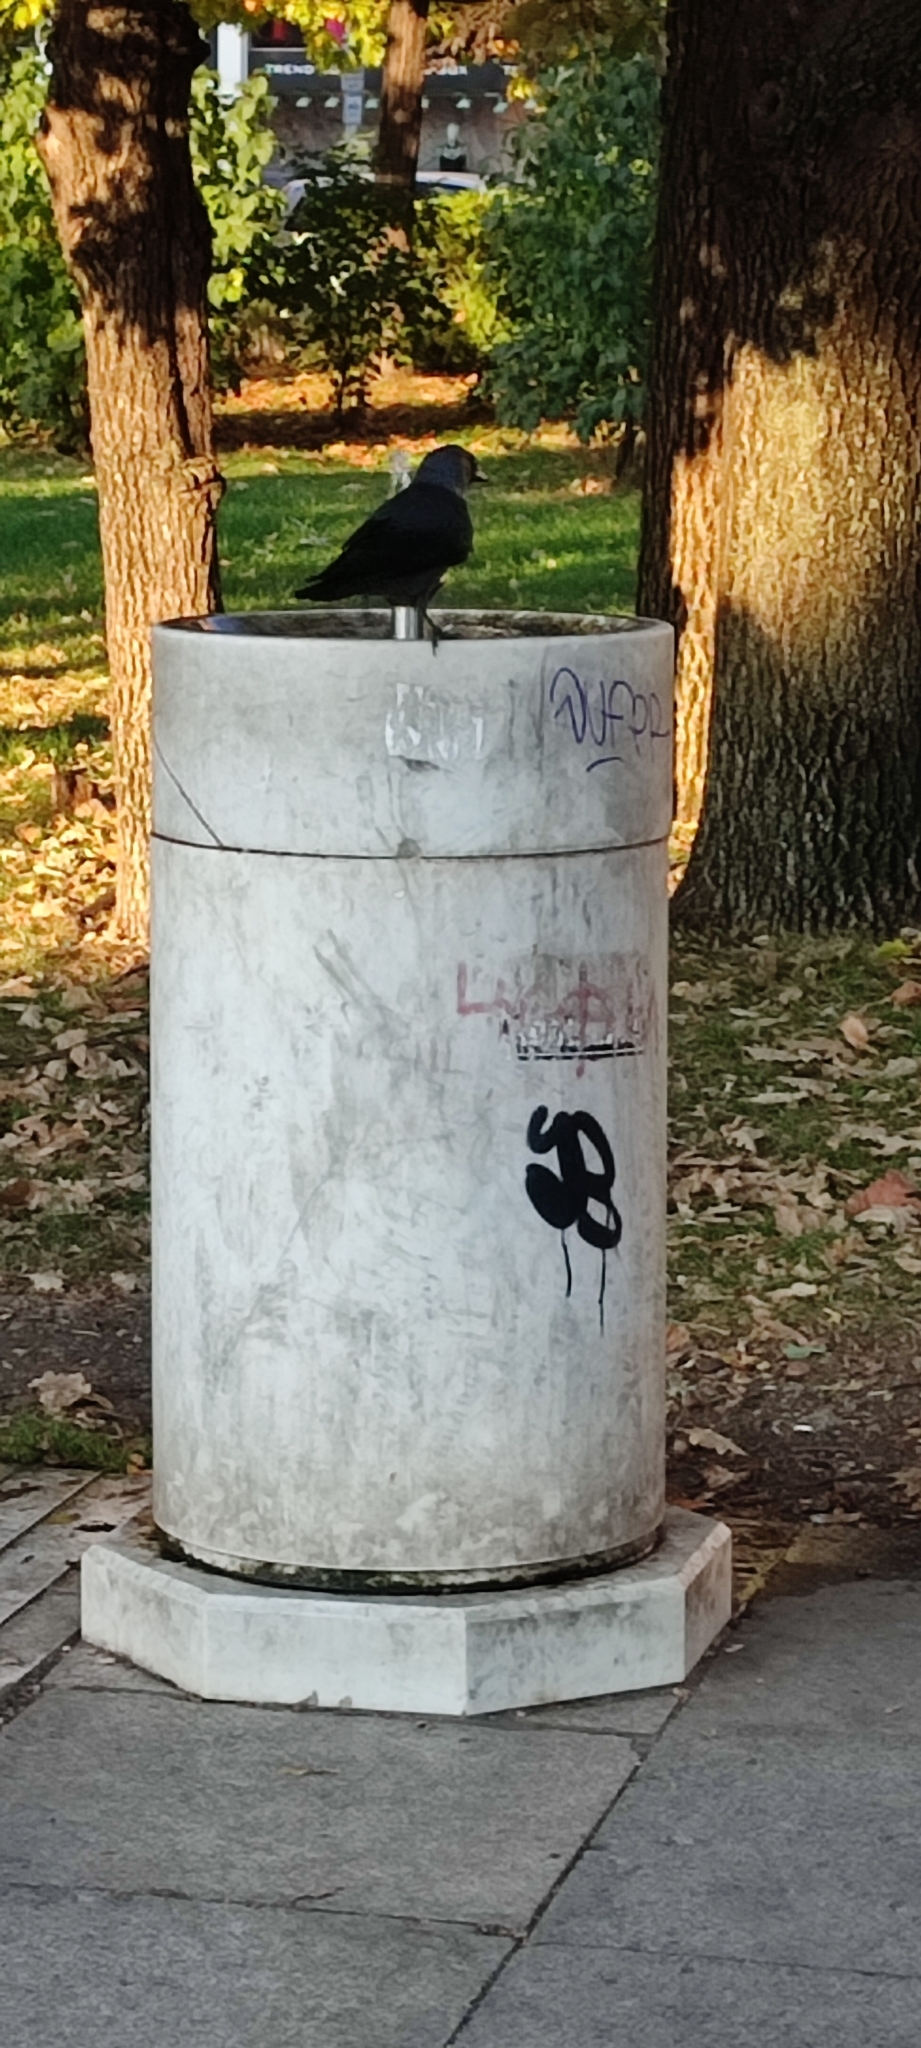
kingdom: Animalia
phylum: Chordata
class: Aves
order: Passeriformes
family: Corvidae
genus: Coloeus
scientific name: Coloeus monedula
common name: Western jackdaw
